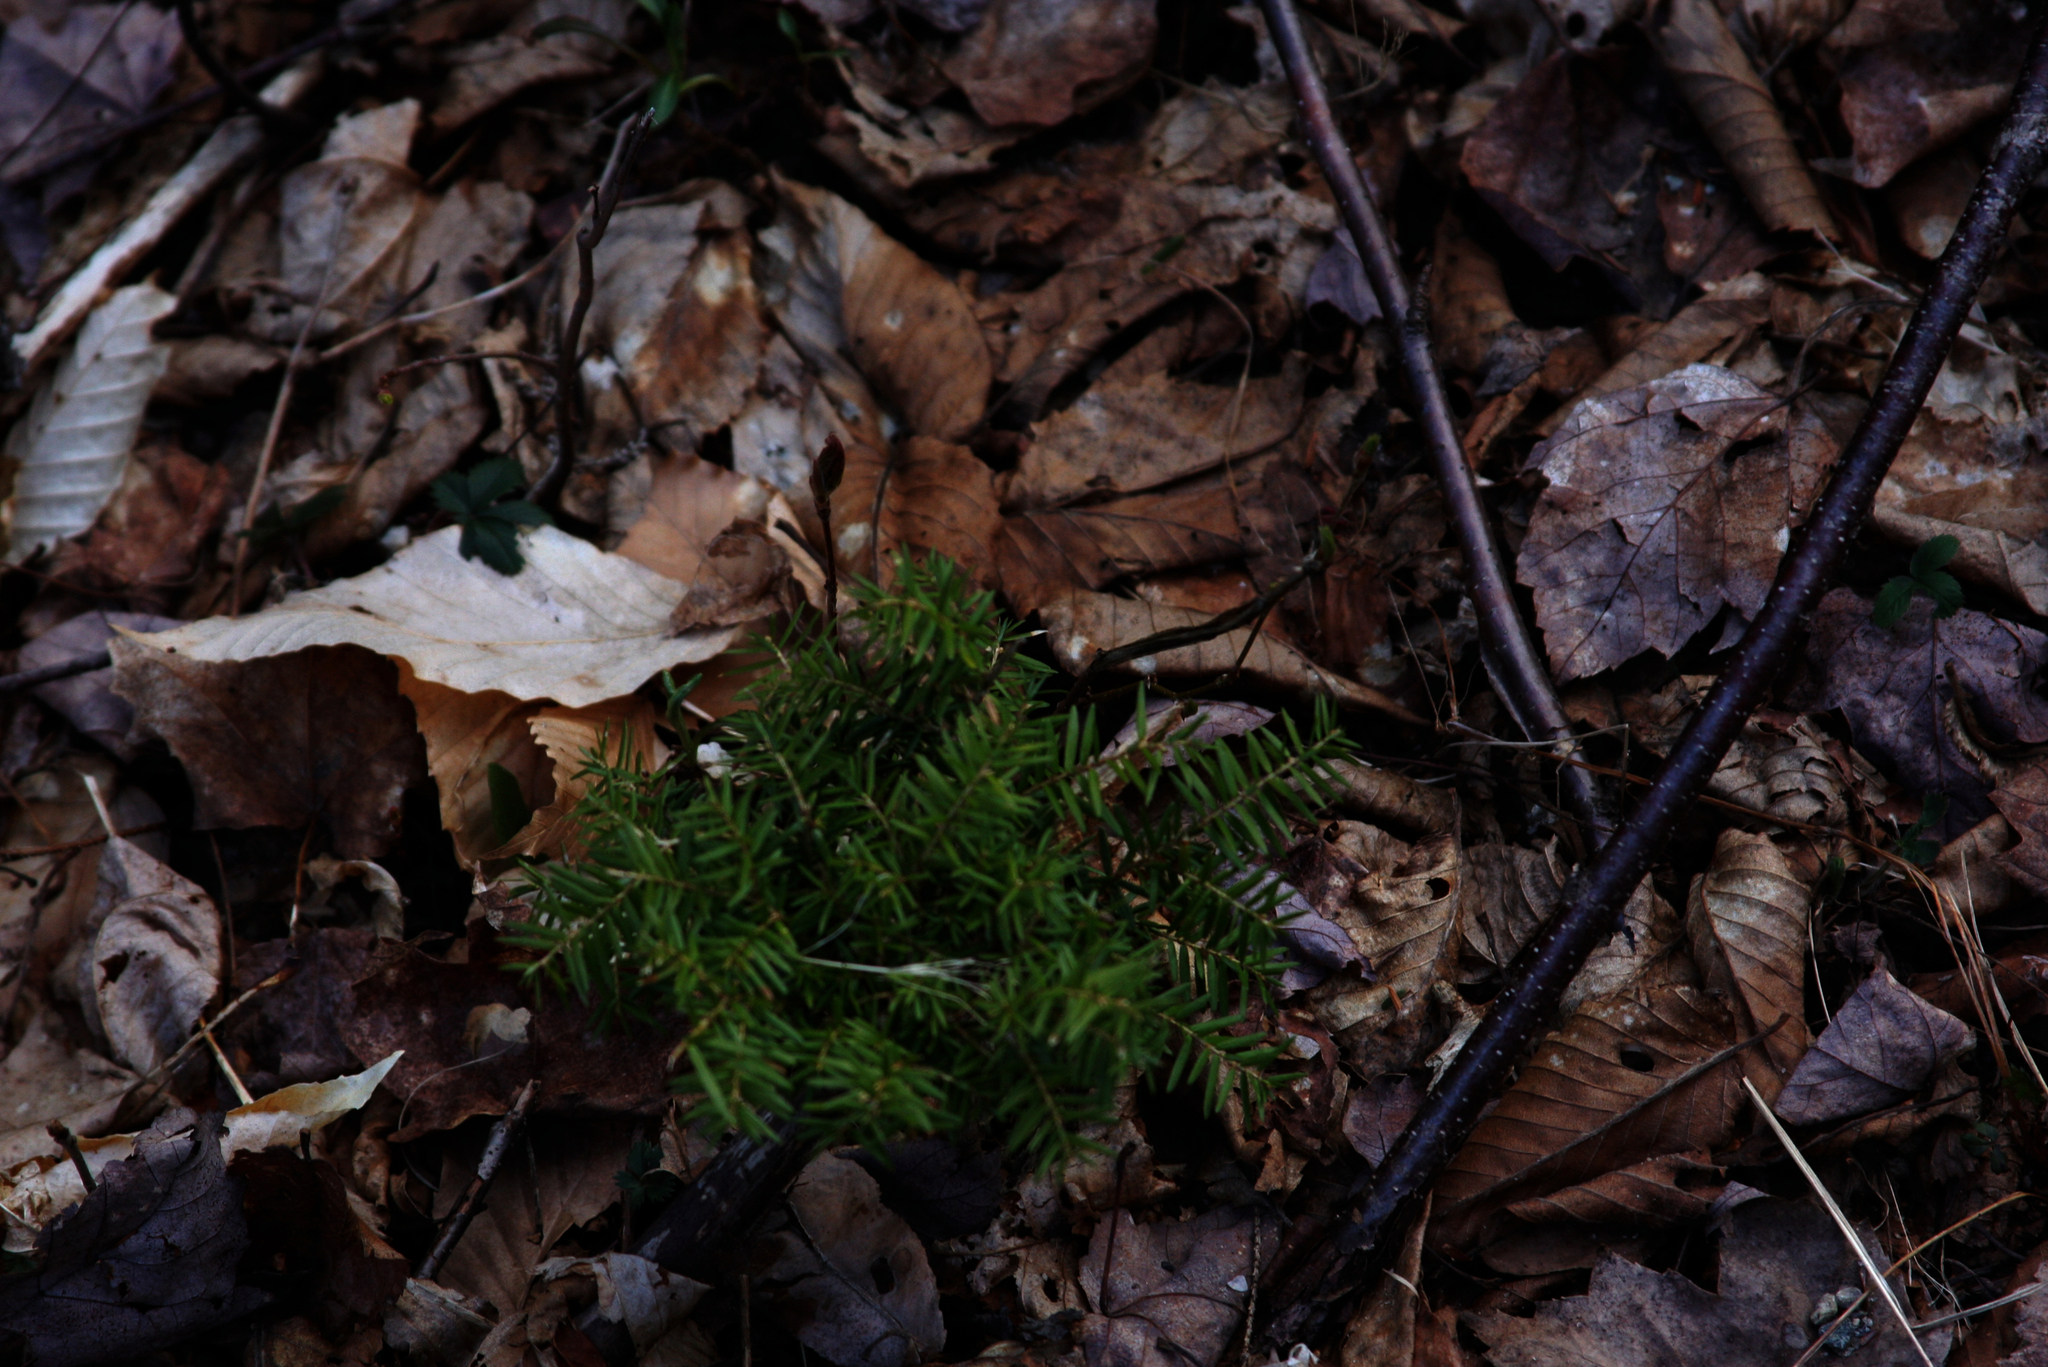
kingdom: Plantae
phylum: Tracheophyta
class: Pinopsida
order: Pinales
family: Pinaceae
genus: Tsuga
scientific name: Tsuga canadensis
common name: Eastern hemlock
